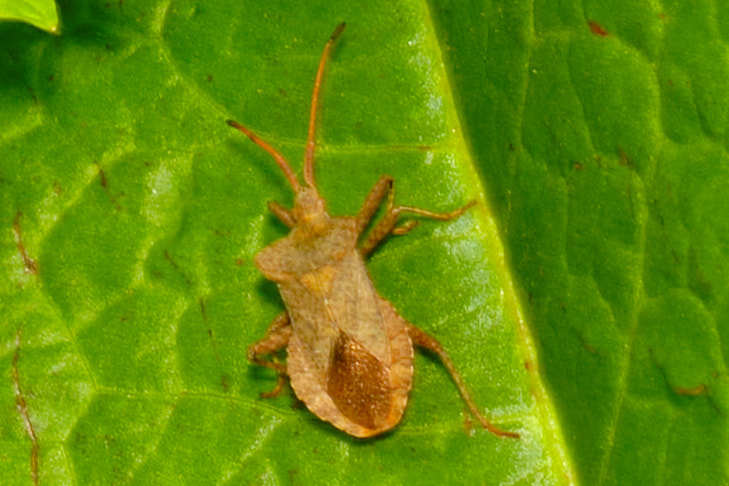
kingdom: Animalia
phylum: Arthropoda
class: Insecta
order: Hemiptera
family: Coreidae
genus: Coreus
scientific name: Coreus marginatus
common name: Dock bug
